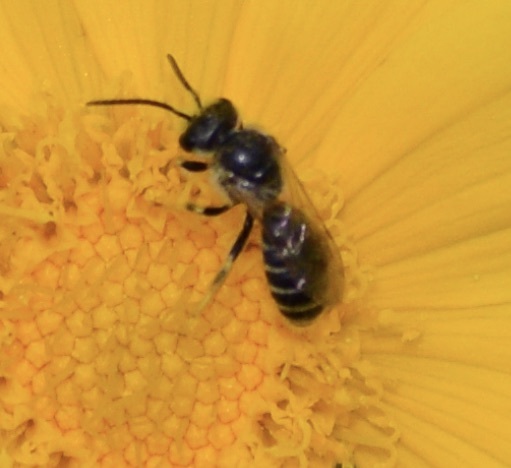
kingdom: Animalia
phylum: Arthropoda
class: Insecta
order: Hymenoptera
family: Halictidae
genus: Halictus
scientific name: Halictus ligatus
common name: Ligated furrow bee
